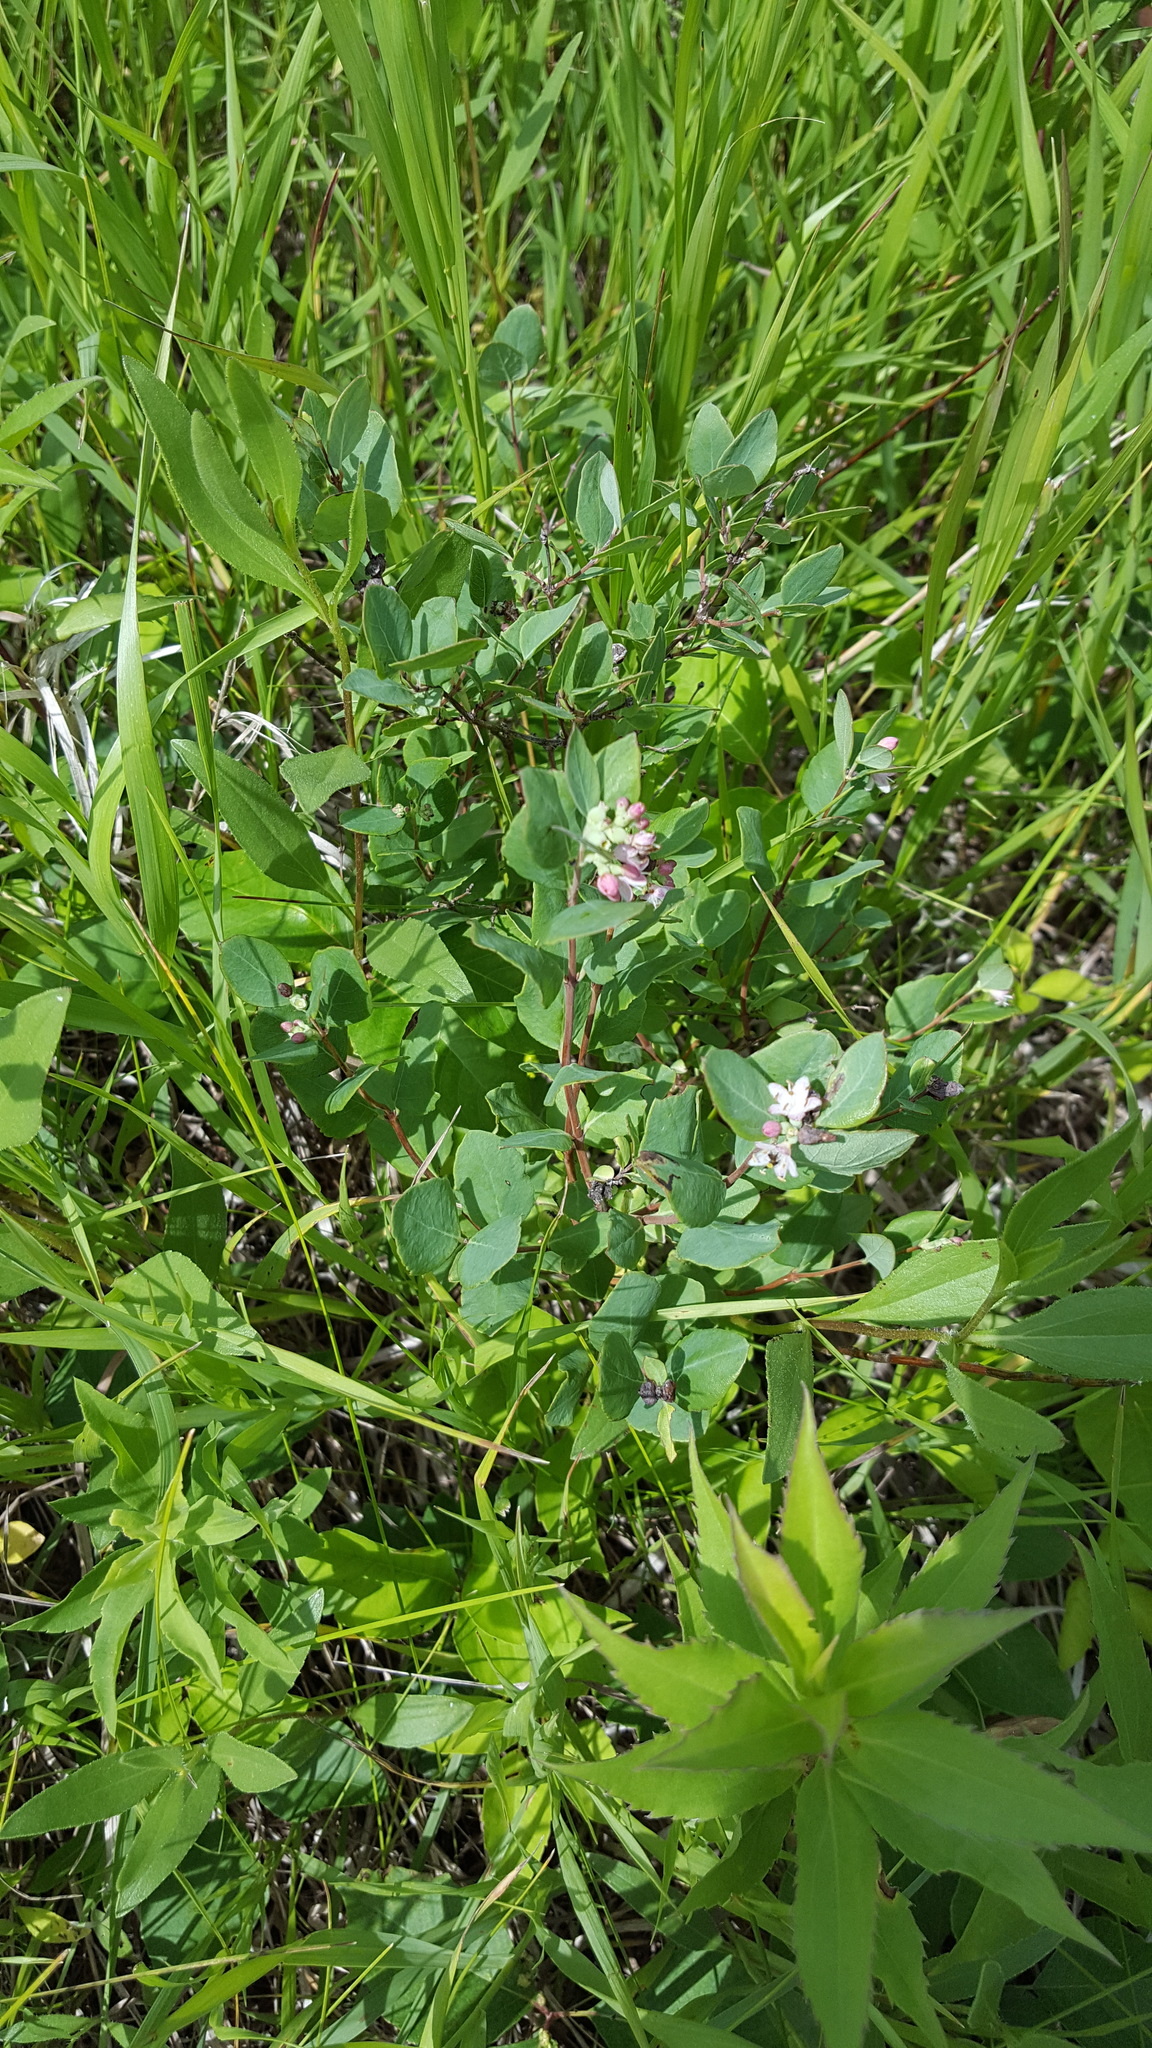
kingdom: Plantae
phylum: Tracheophyta
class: Magnoliopsida
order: Dipsacales
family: Caprifoliaceae
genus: Symphoricarpos
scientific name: Symphoricarpos occidentalis
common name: Wolfberry
